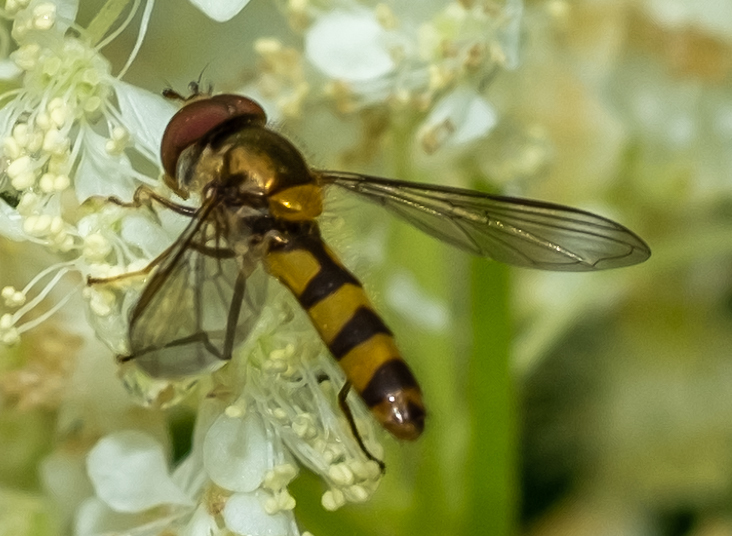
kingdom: Animalia
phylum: Arthropoda
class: Insecta
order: Diptera
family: Syrphidae
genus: Meliscaeva
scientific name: Meliscaeva cinctella
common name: American thintail fly
